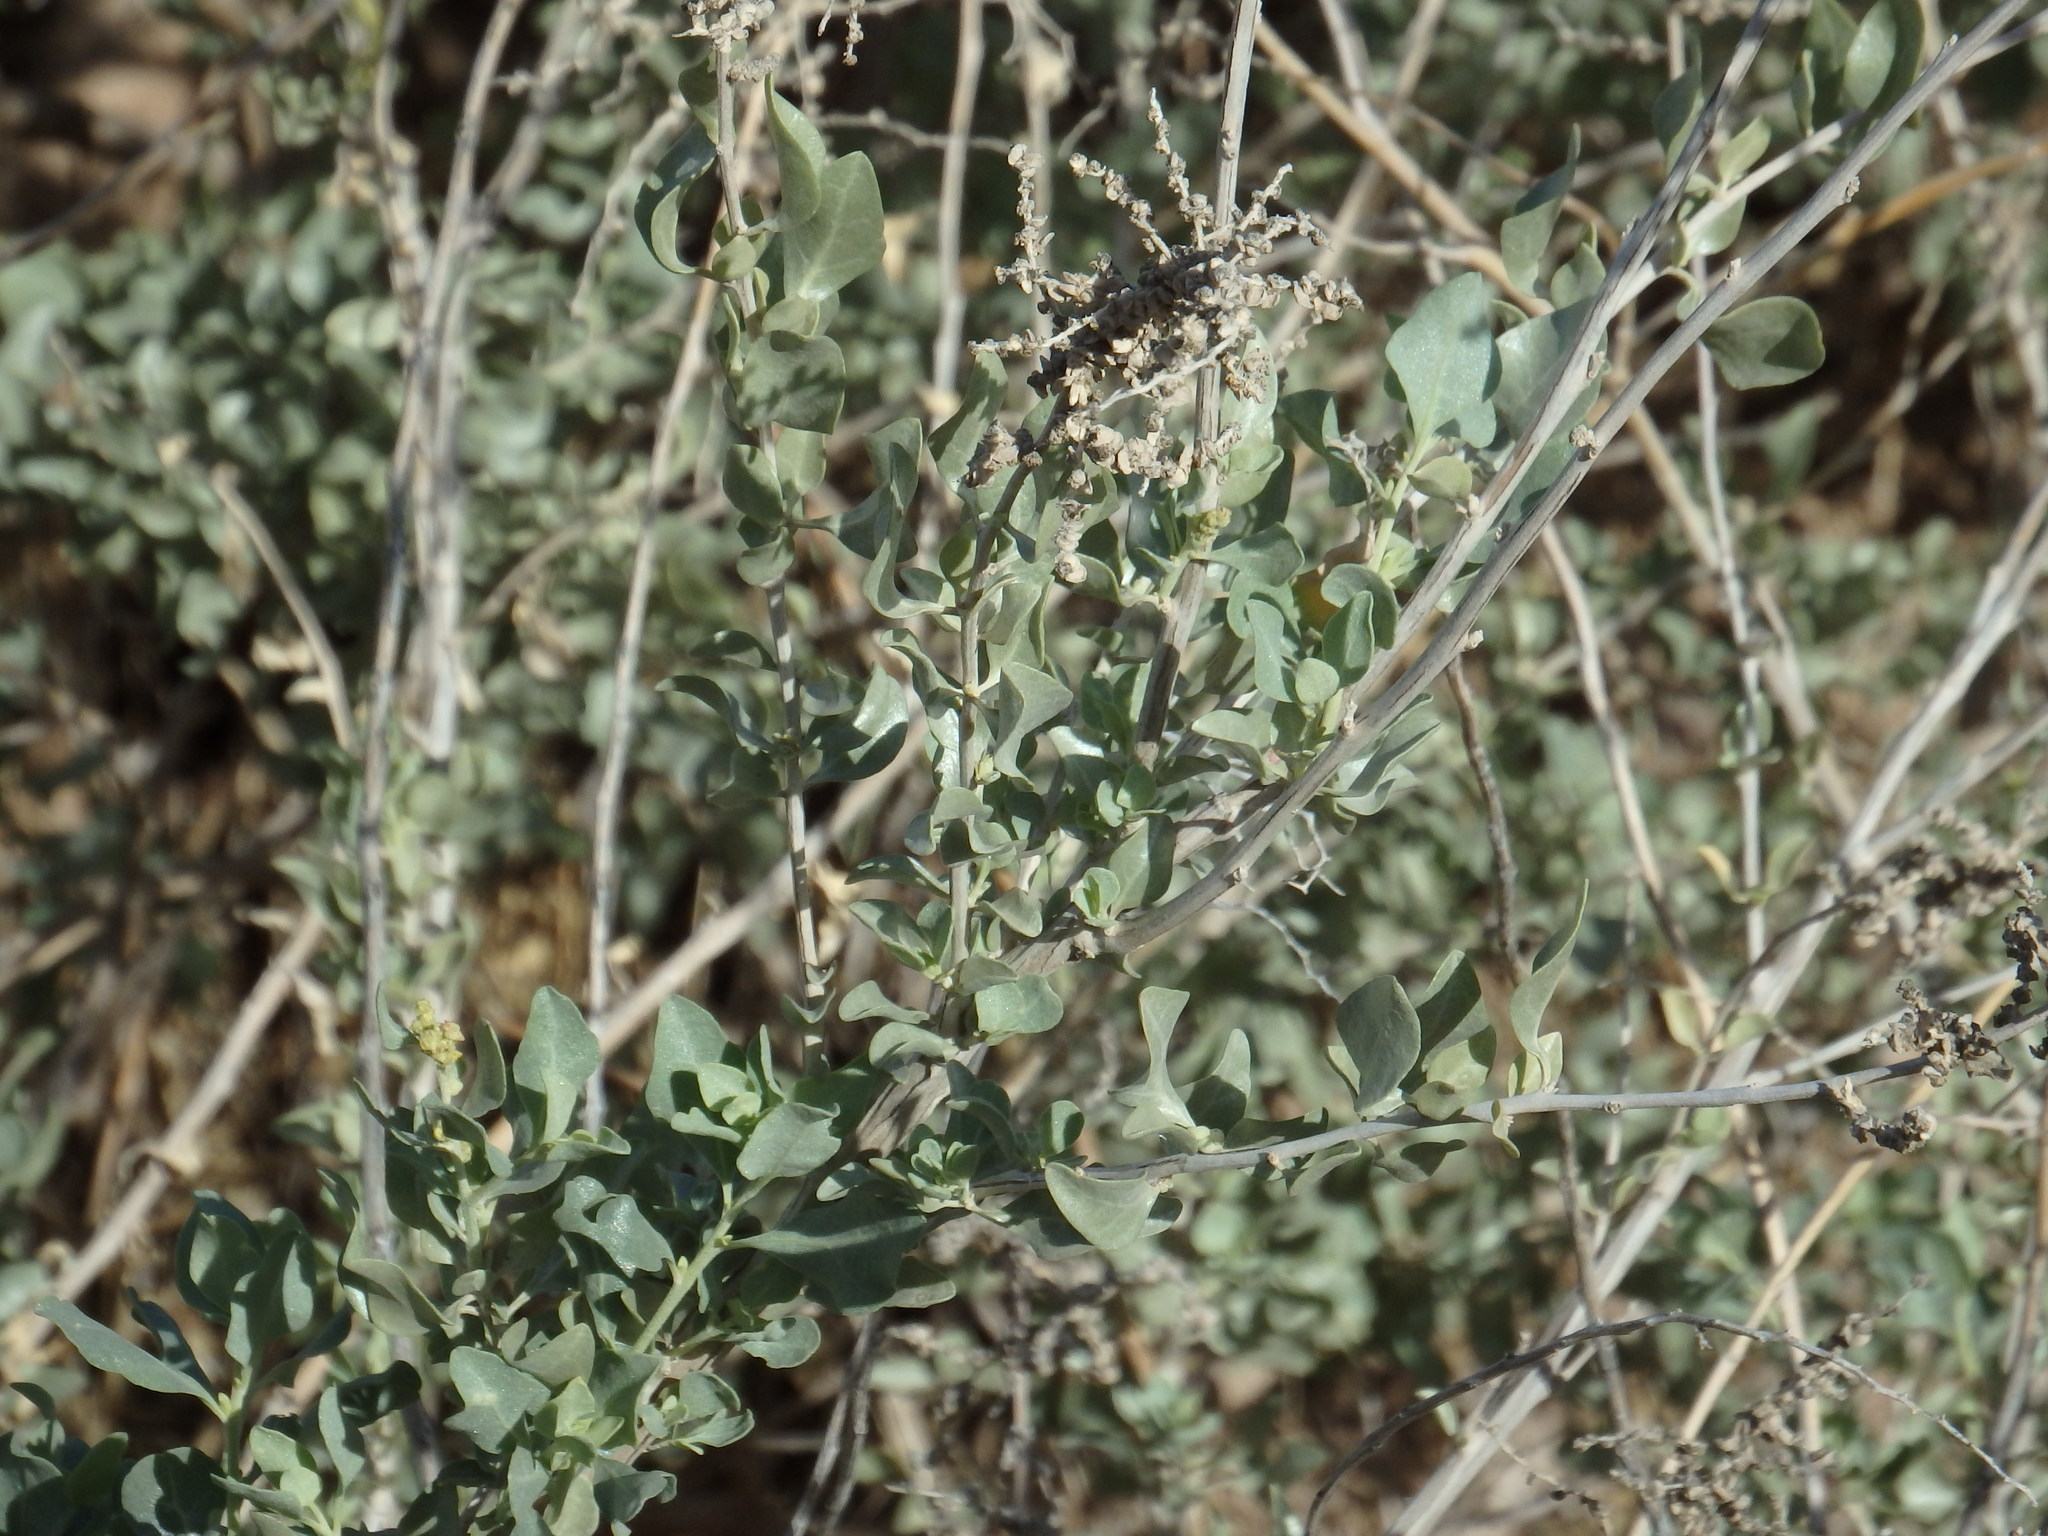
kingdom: Plantae
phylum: Tracheophyta
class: Magnoliopsida
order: Caryophyllales
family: Amaranthaceae
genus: Atriplex
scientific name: Atriplex halimus
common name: Shrubby orache
